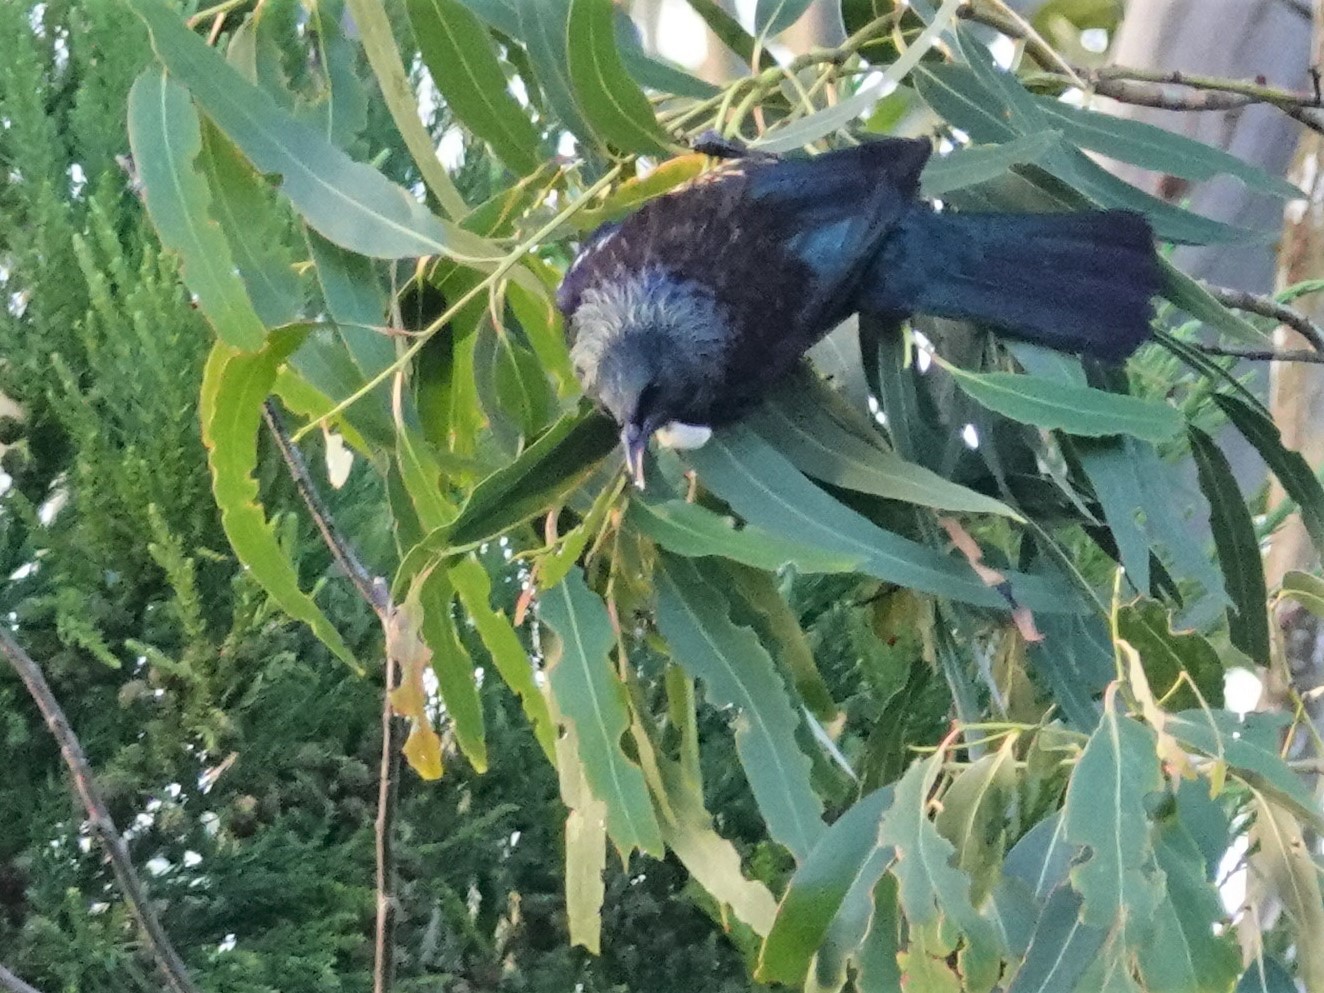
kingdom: Animalia
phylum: Chordata
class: Aves
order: Passeriformes
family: Meliphagidae
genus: Prosthemadera
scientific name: Prosthemadera novaeseelandiae
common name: Tui
